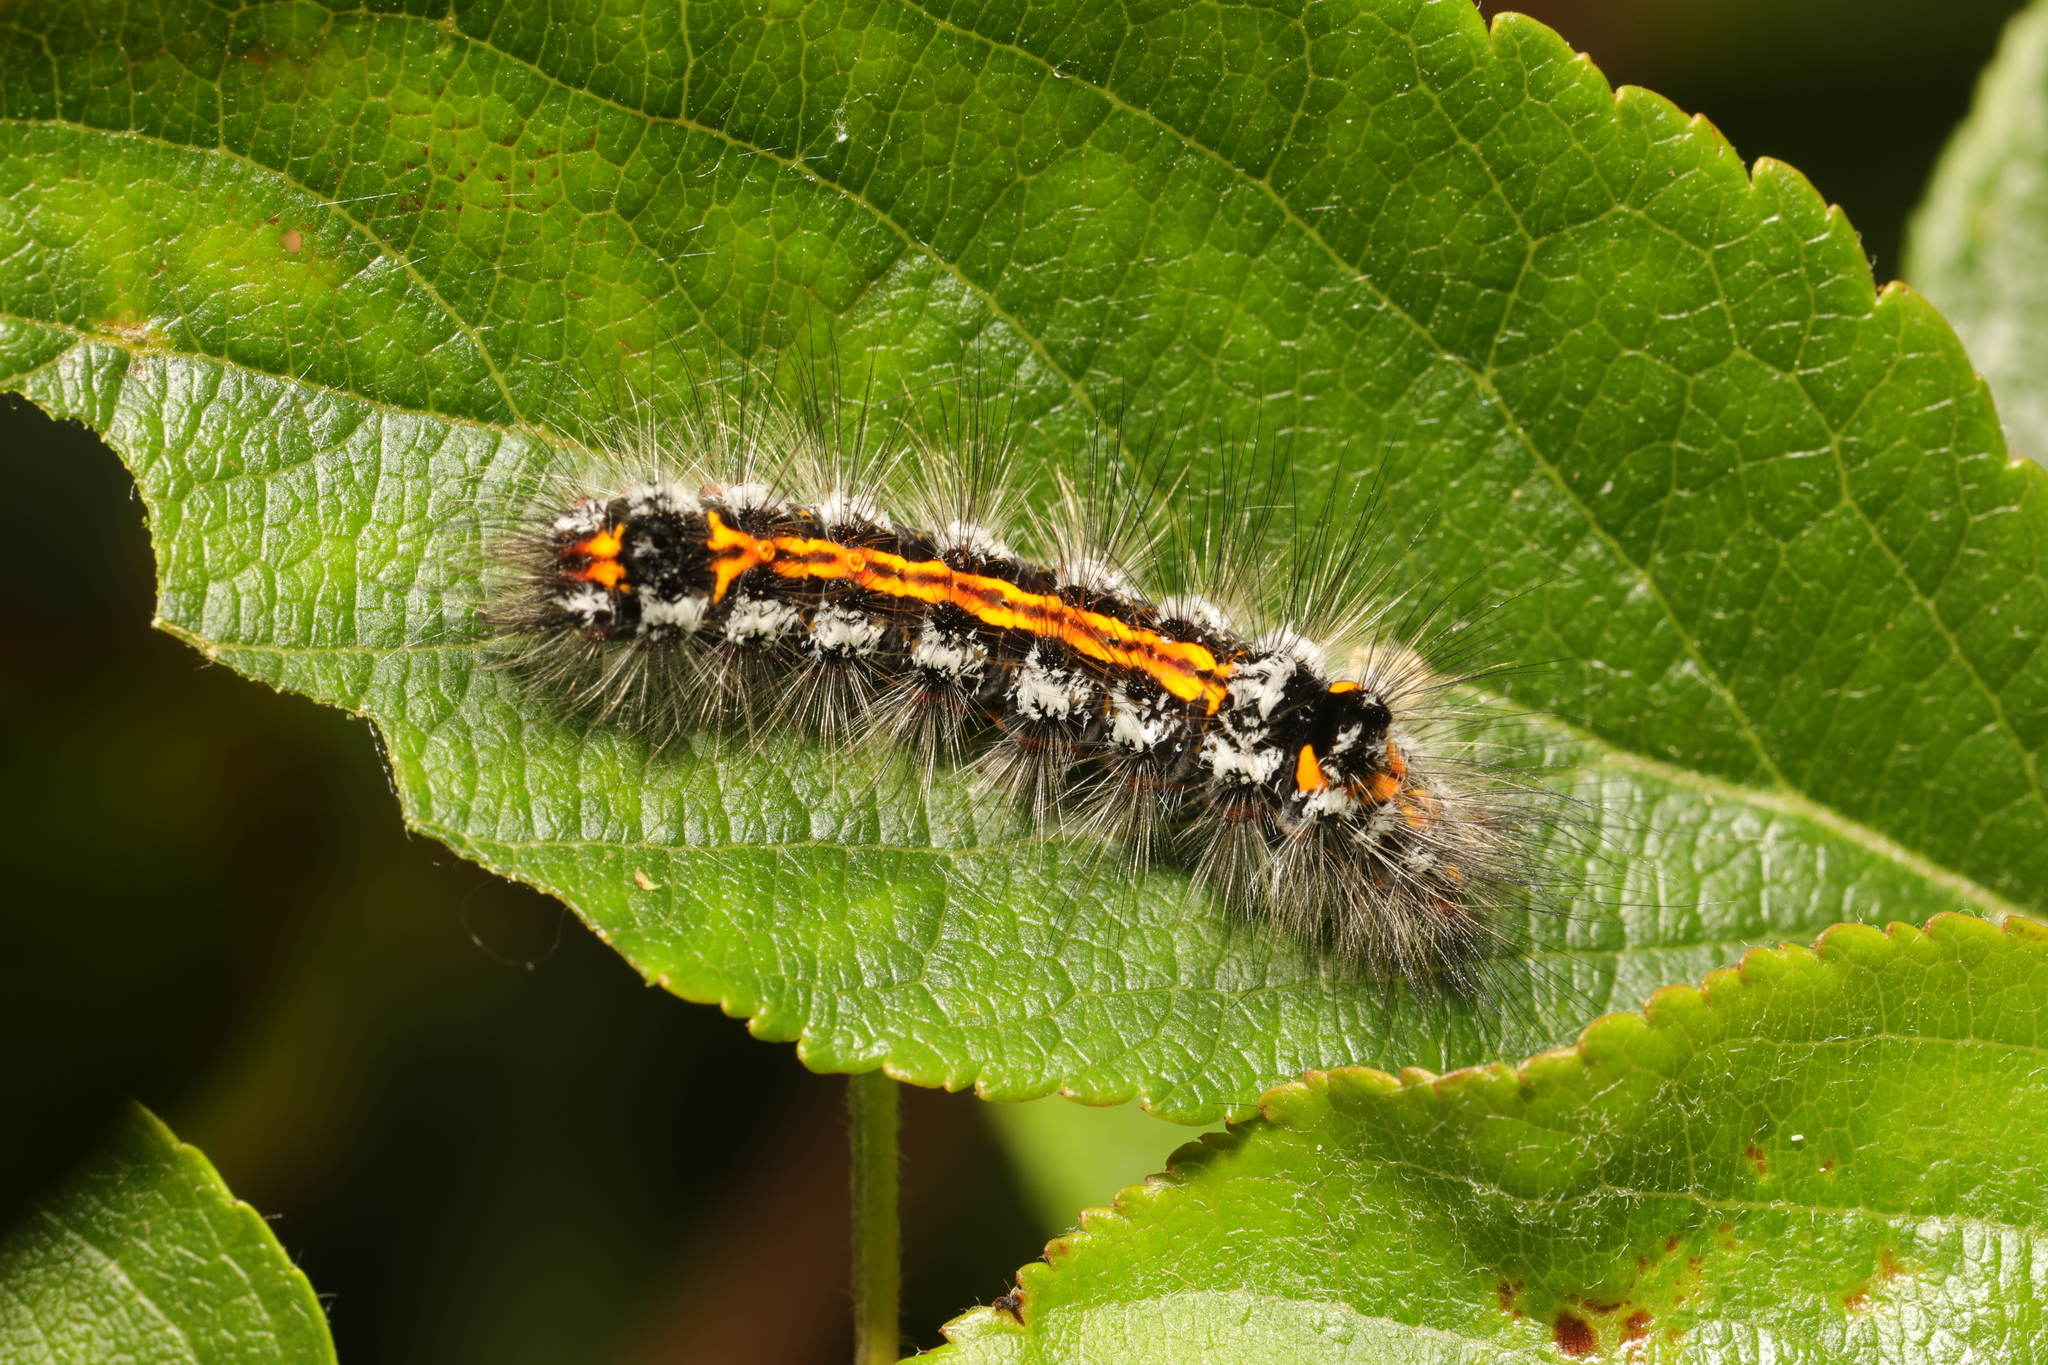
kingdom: Animalia
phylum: Arthropoda
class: Insecta
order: Lepidoptera
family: Erebidae
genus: Sphrageidus
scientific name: Sphrageidus similis
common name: Yellow-tail
